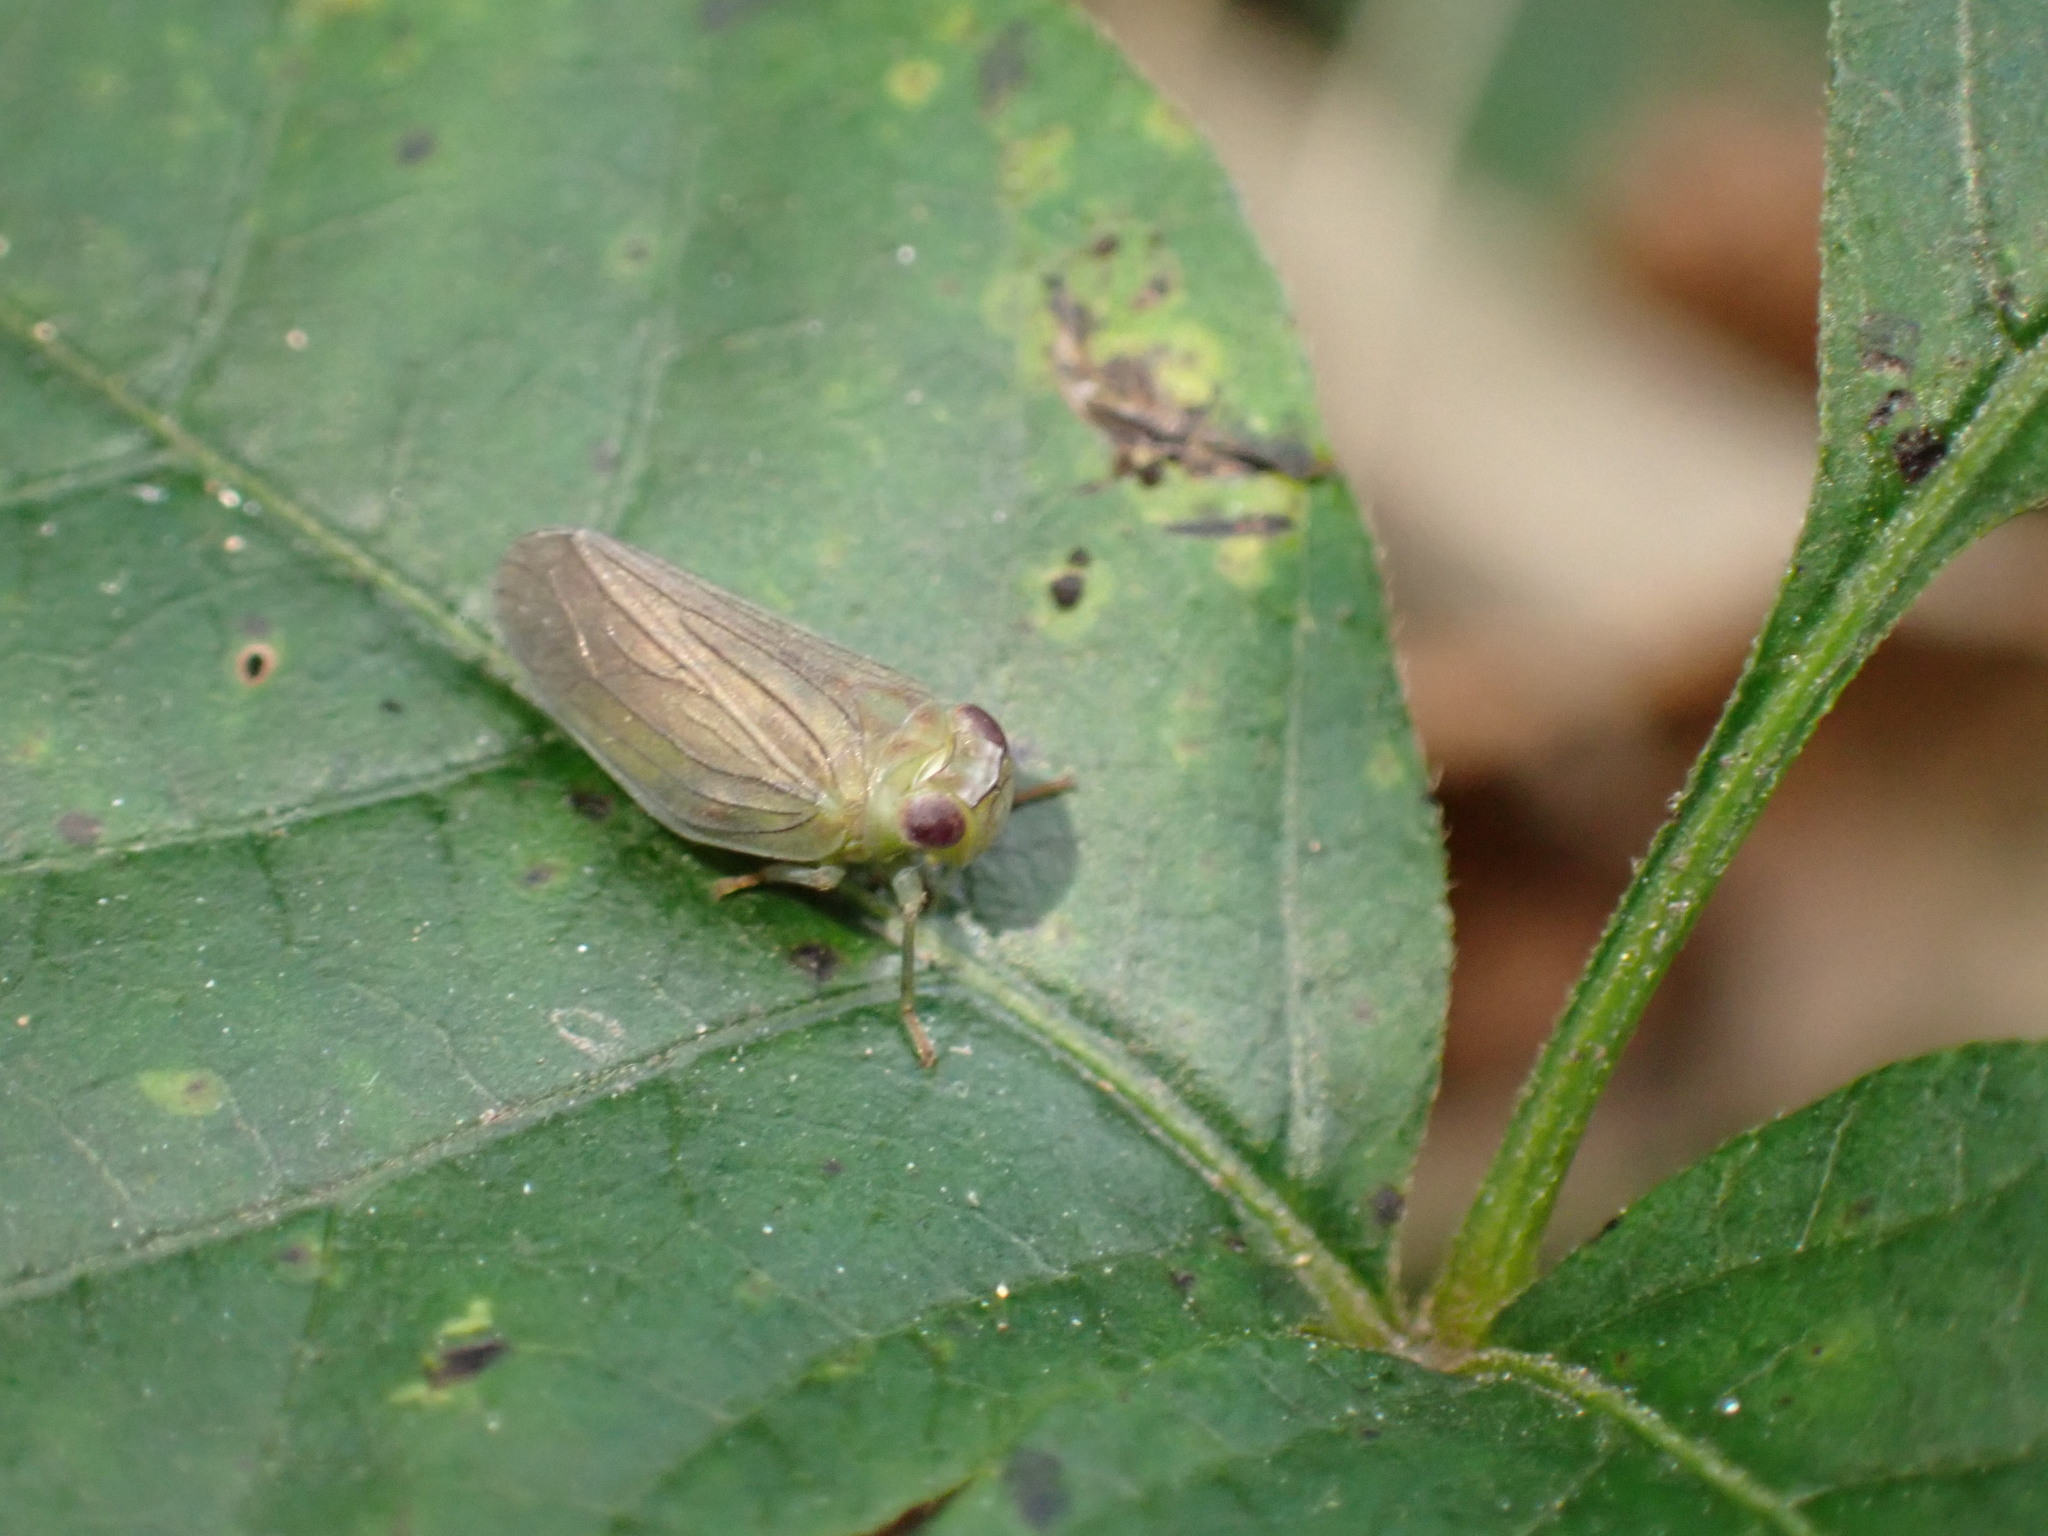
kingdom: Animalia
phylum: Arthropoda
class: Insecta
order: Hemiptera
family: Issidae
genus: Aplos
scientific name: Aplos simplex
